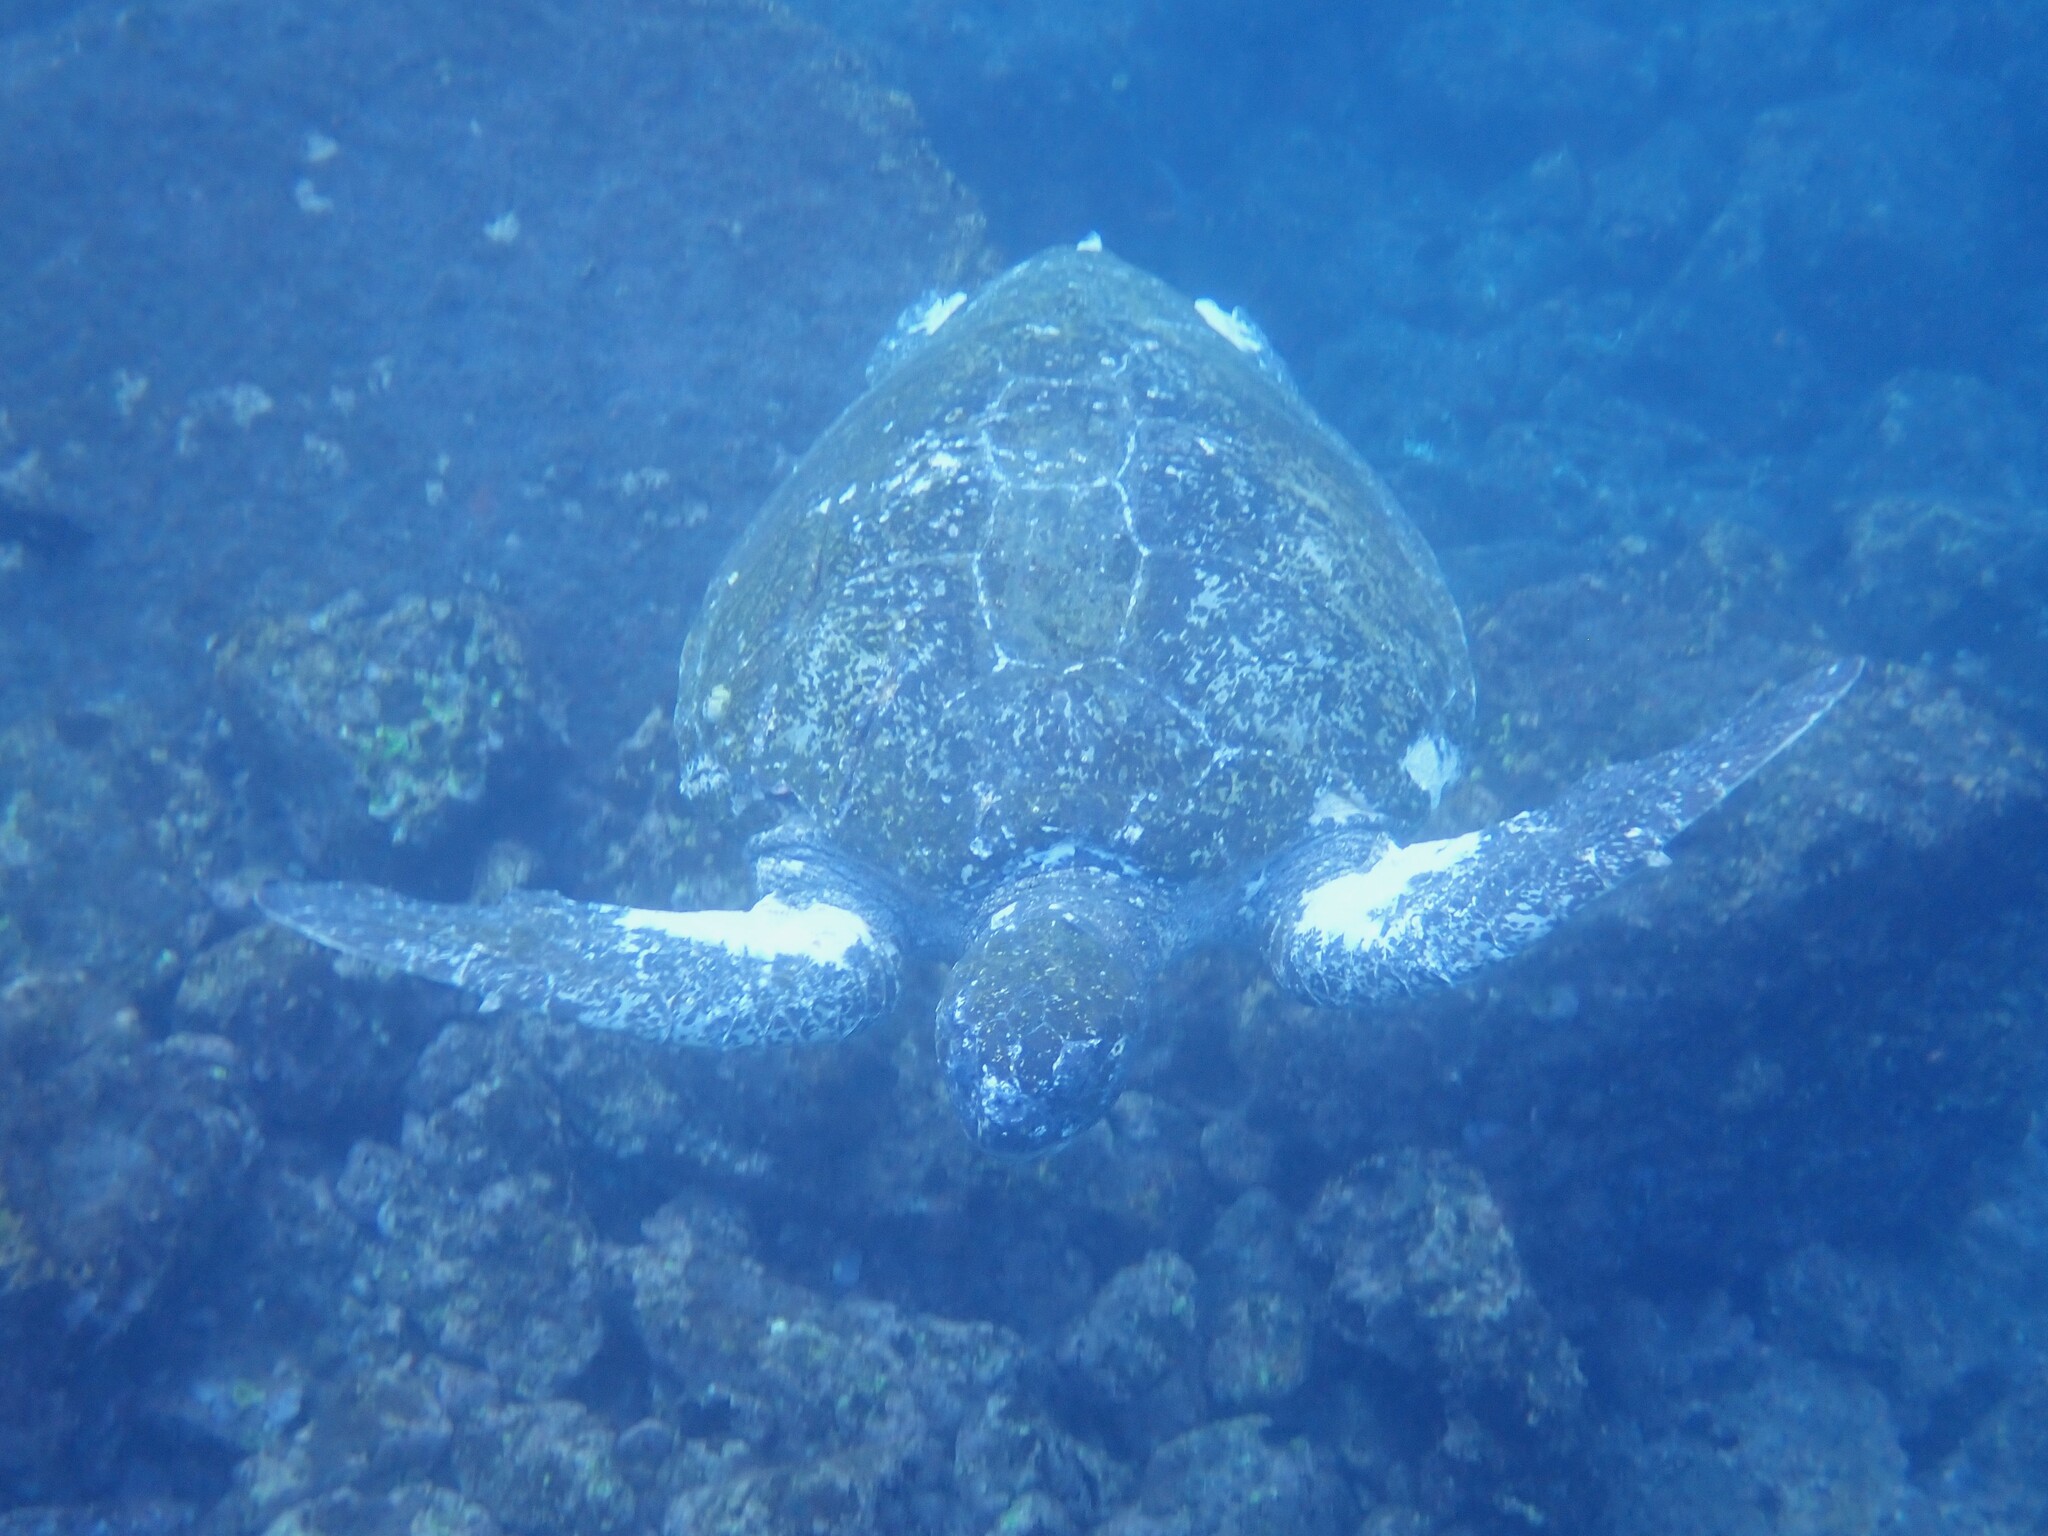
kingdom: Animalia
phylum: Chordata
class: Testudines
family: Cheloniidae
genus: Chelonia
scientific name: Chelonia mydas
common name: Green turtle
